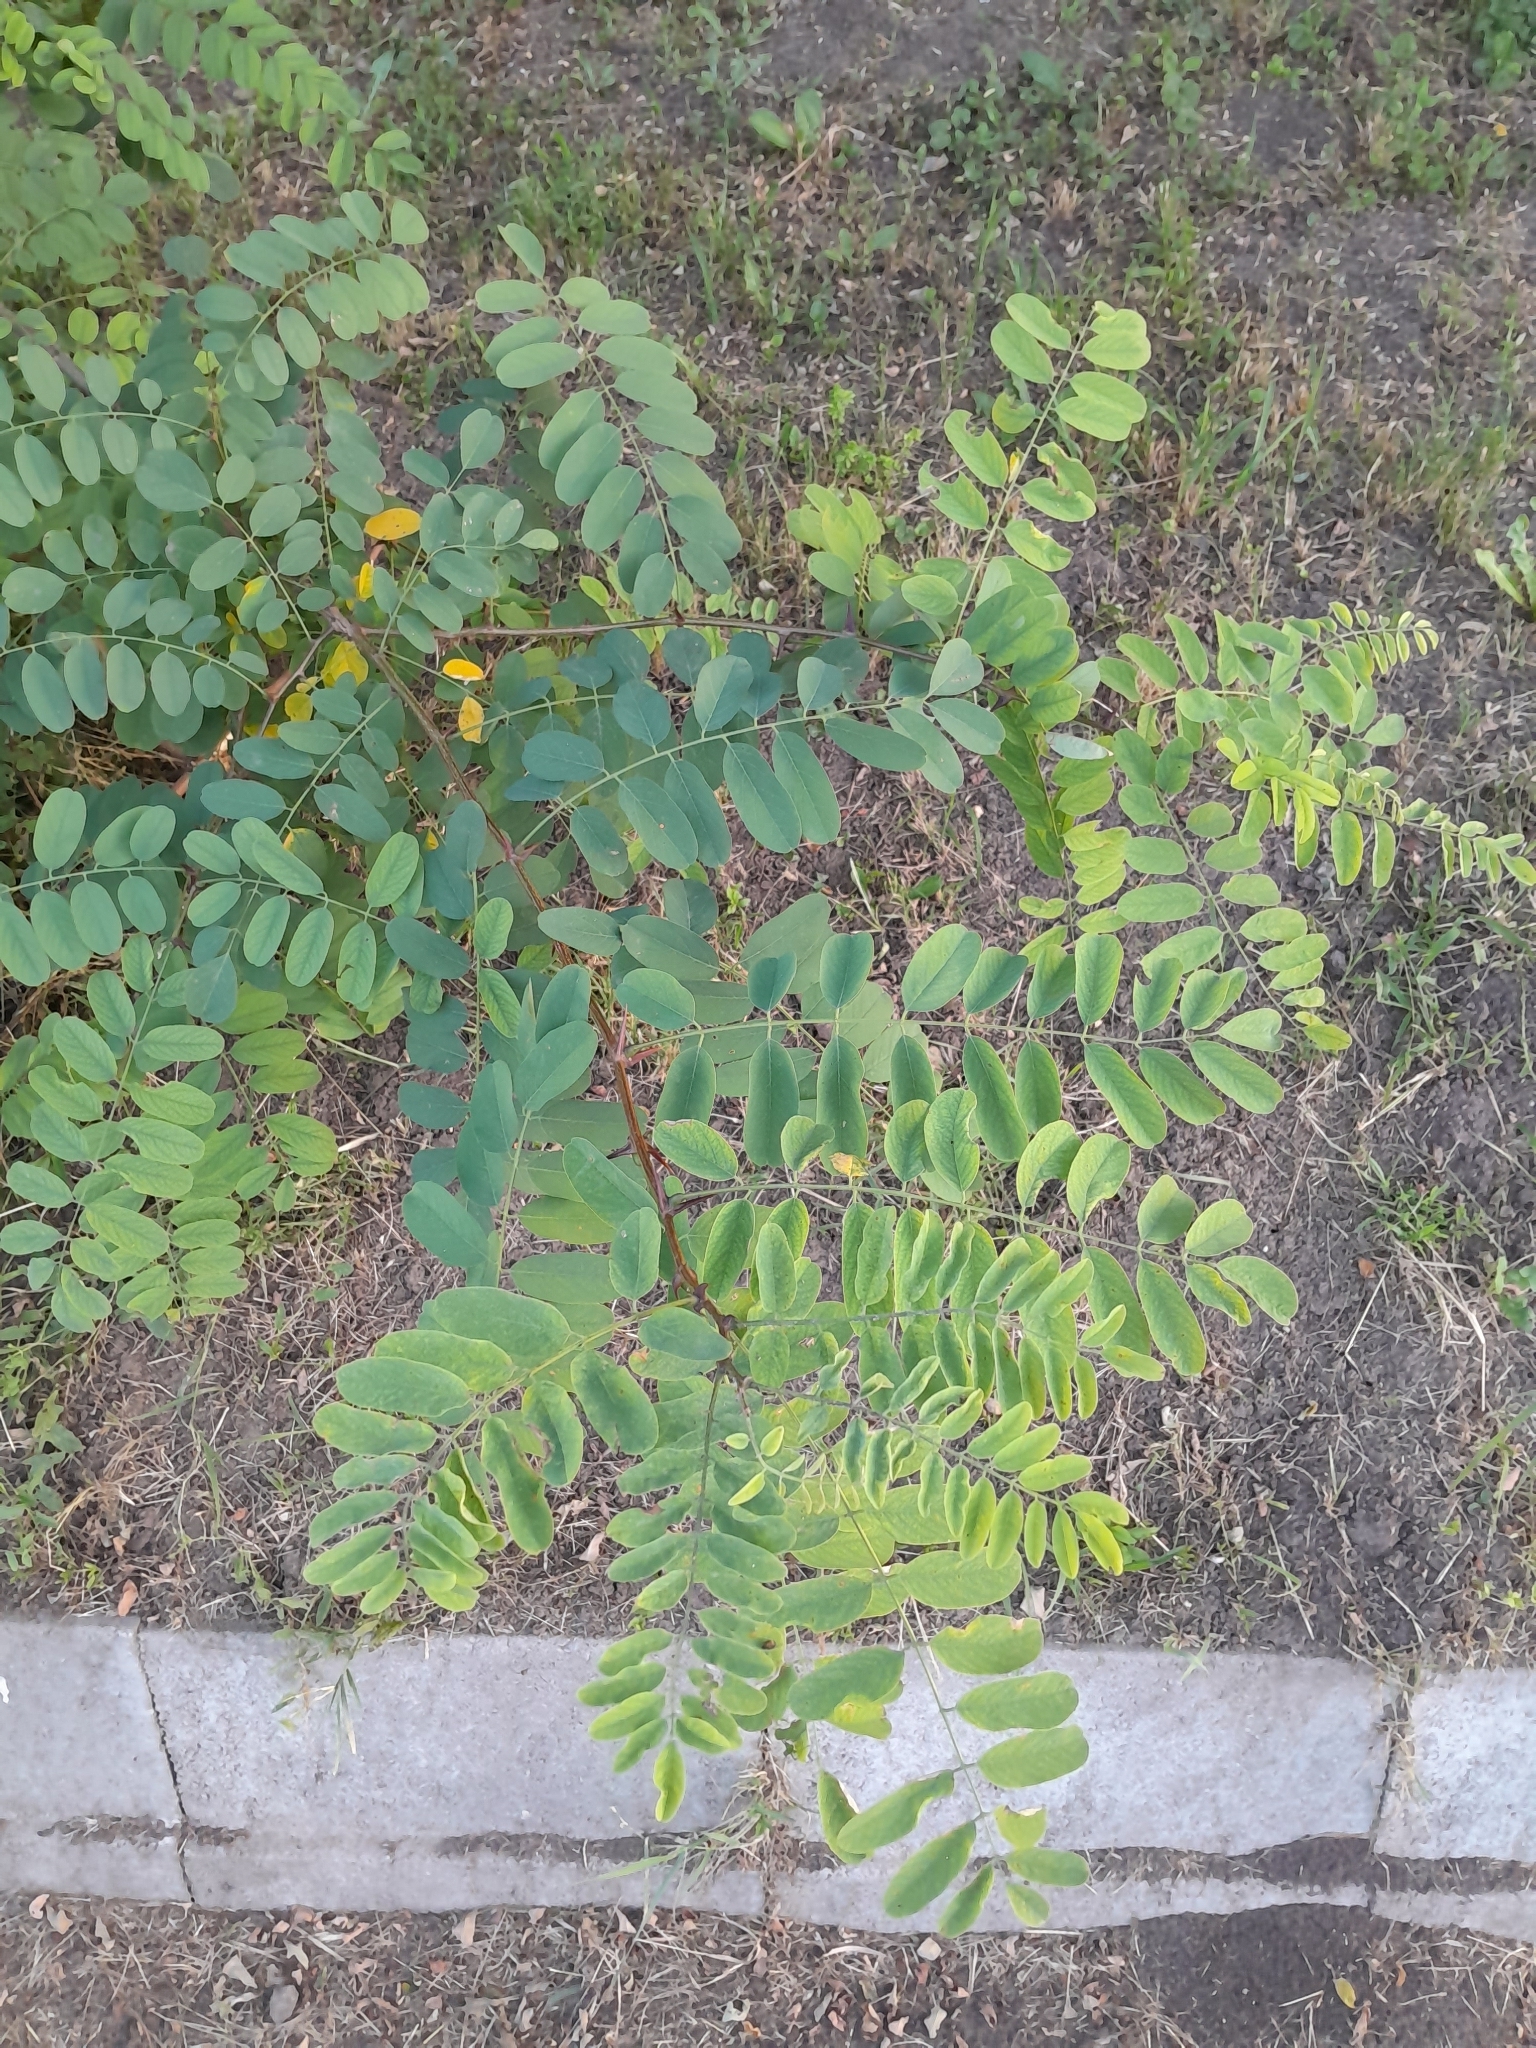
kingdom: Plantae
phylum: Tracheophyta
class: Magnoliopsida
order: Fabales
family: Fabaceae
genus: Robinia
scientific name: Robinia pseudoacacia
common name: Black locust
